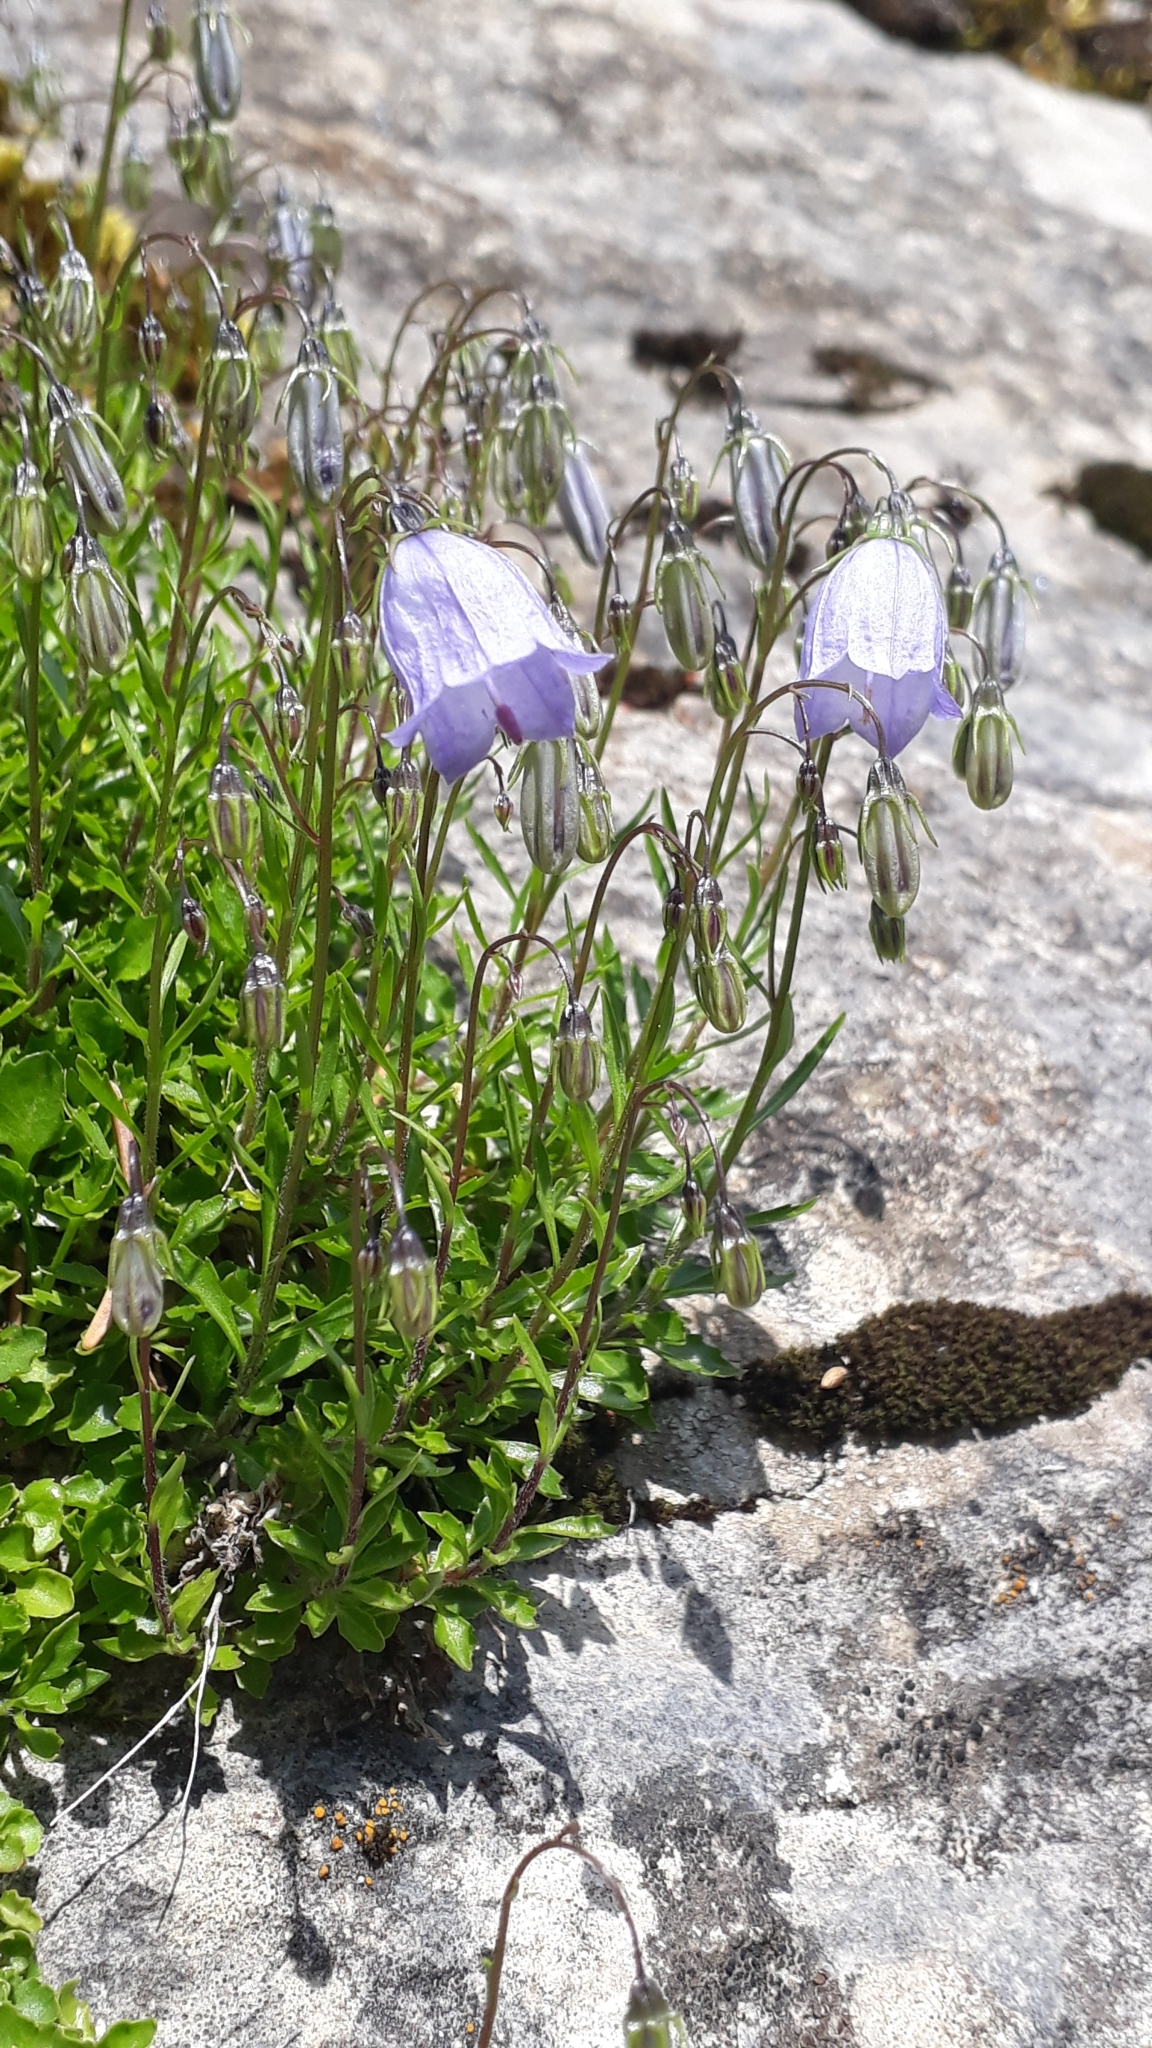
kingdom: Plantae
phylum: Tracheophyta
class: Magnoliopsida
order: Asterales
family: Campanulaceae
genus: Campanula
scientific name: Campanula cochleariifolia
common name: Fairies'-thimbles
